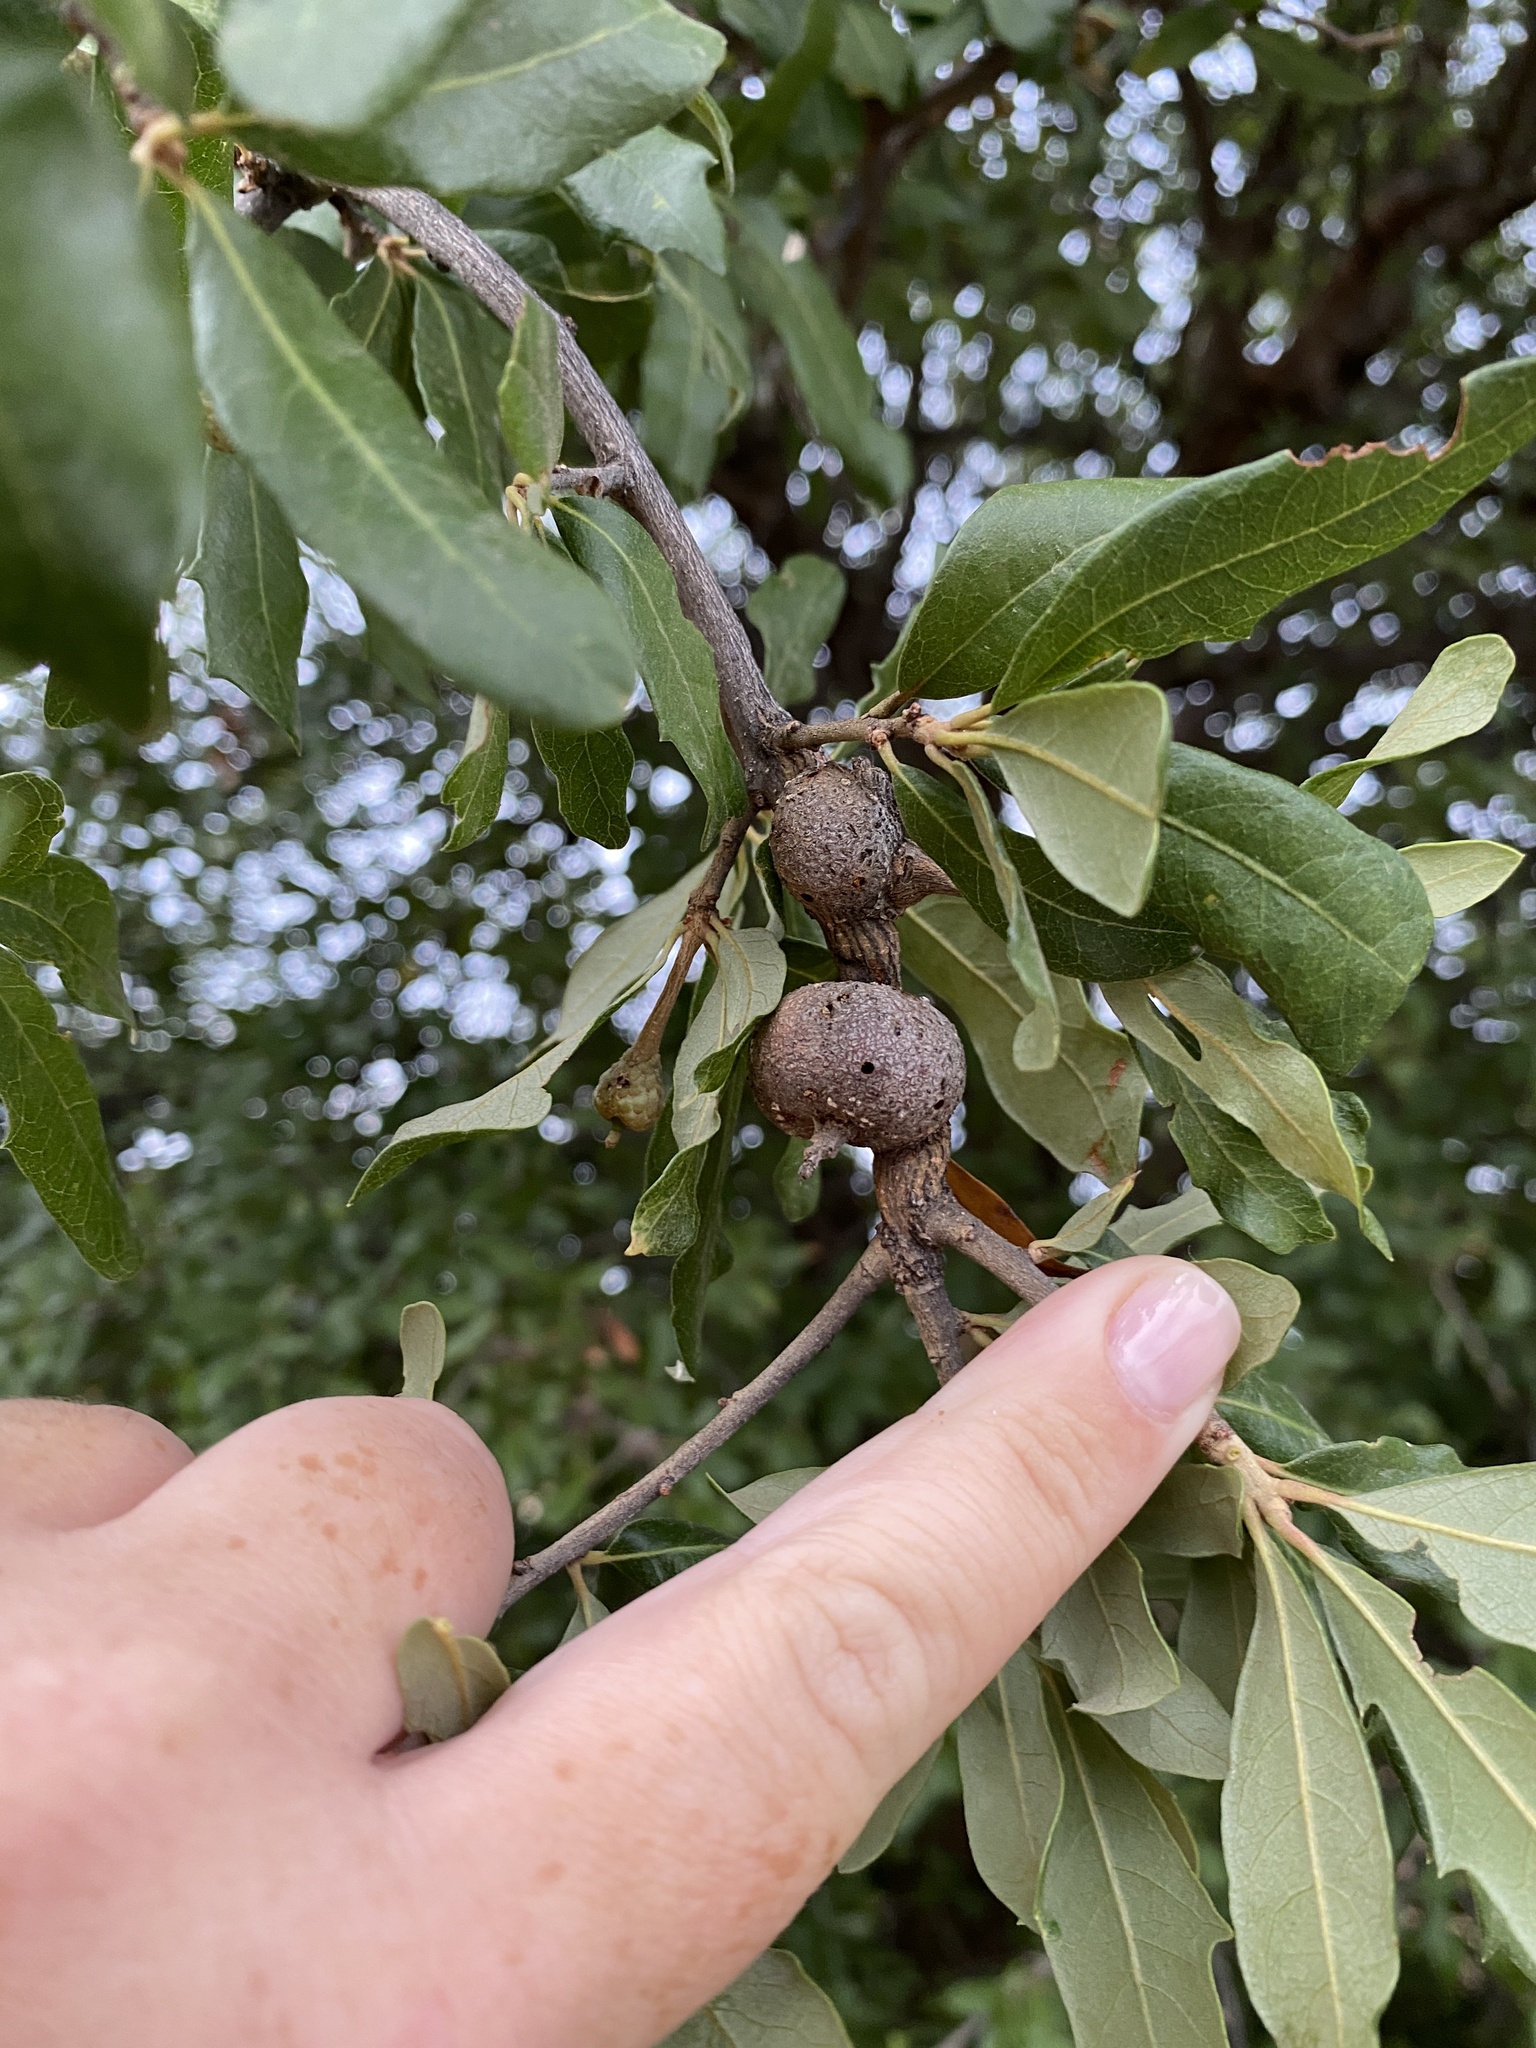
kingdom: Animalia
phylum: Arthropoda
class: Insecta
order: Hymenoptera
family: Cynipidae
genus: Callirhytis
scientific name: Callirhytis
